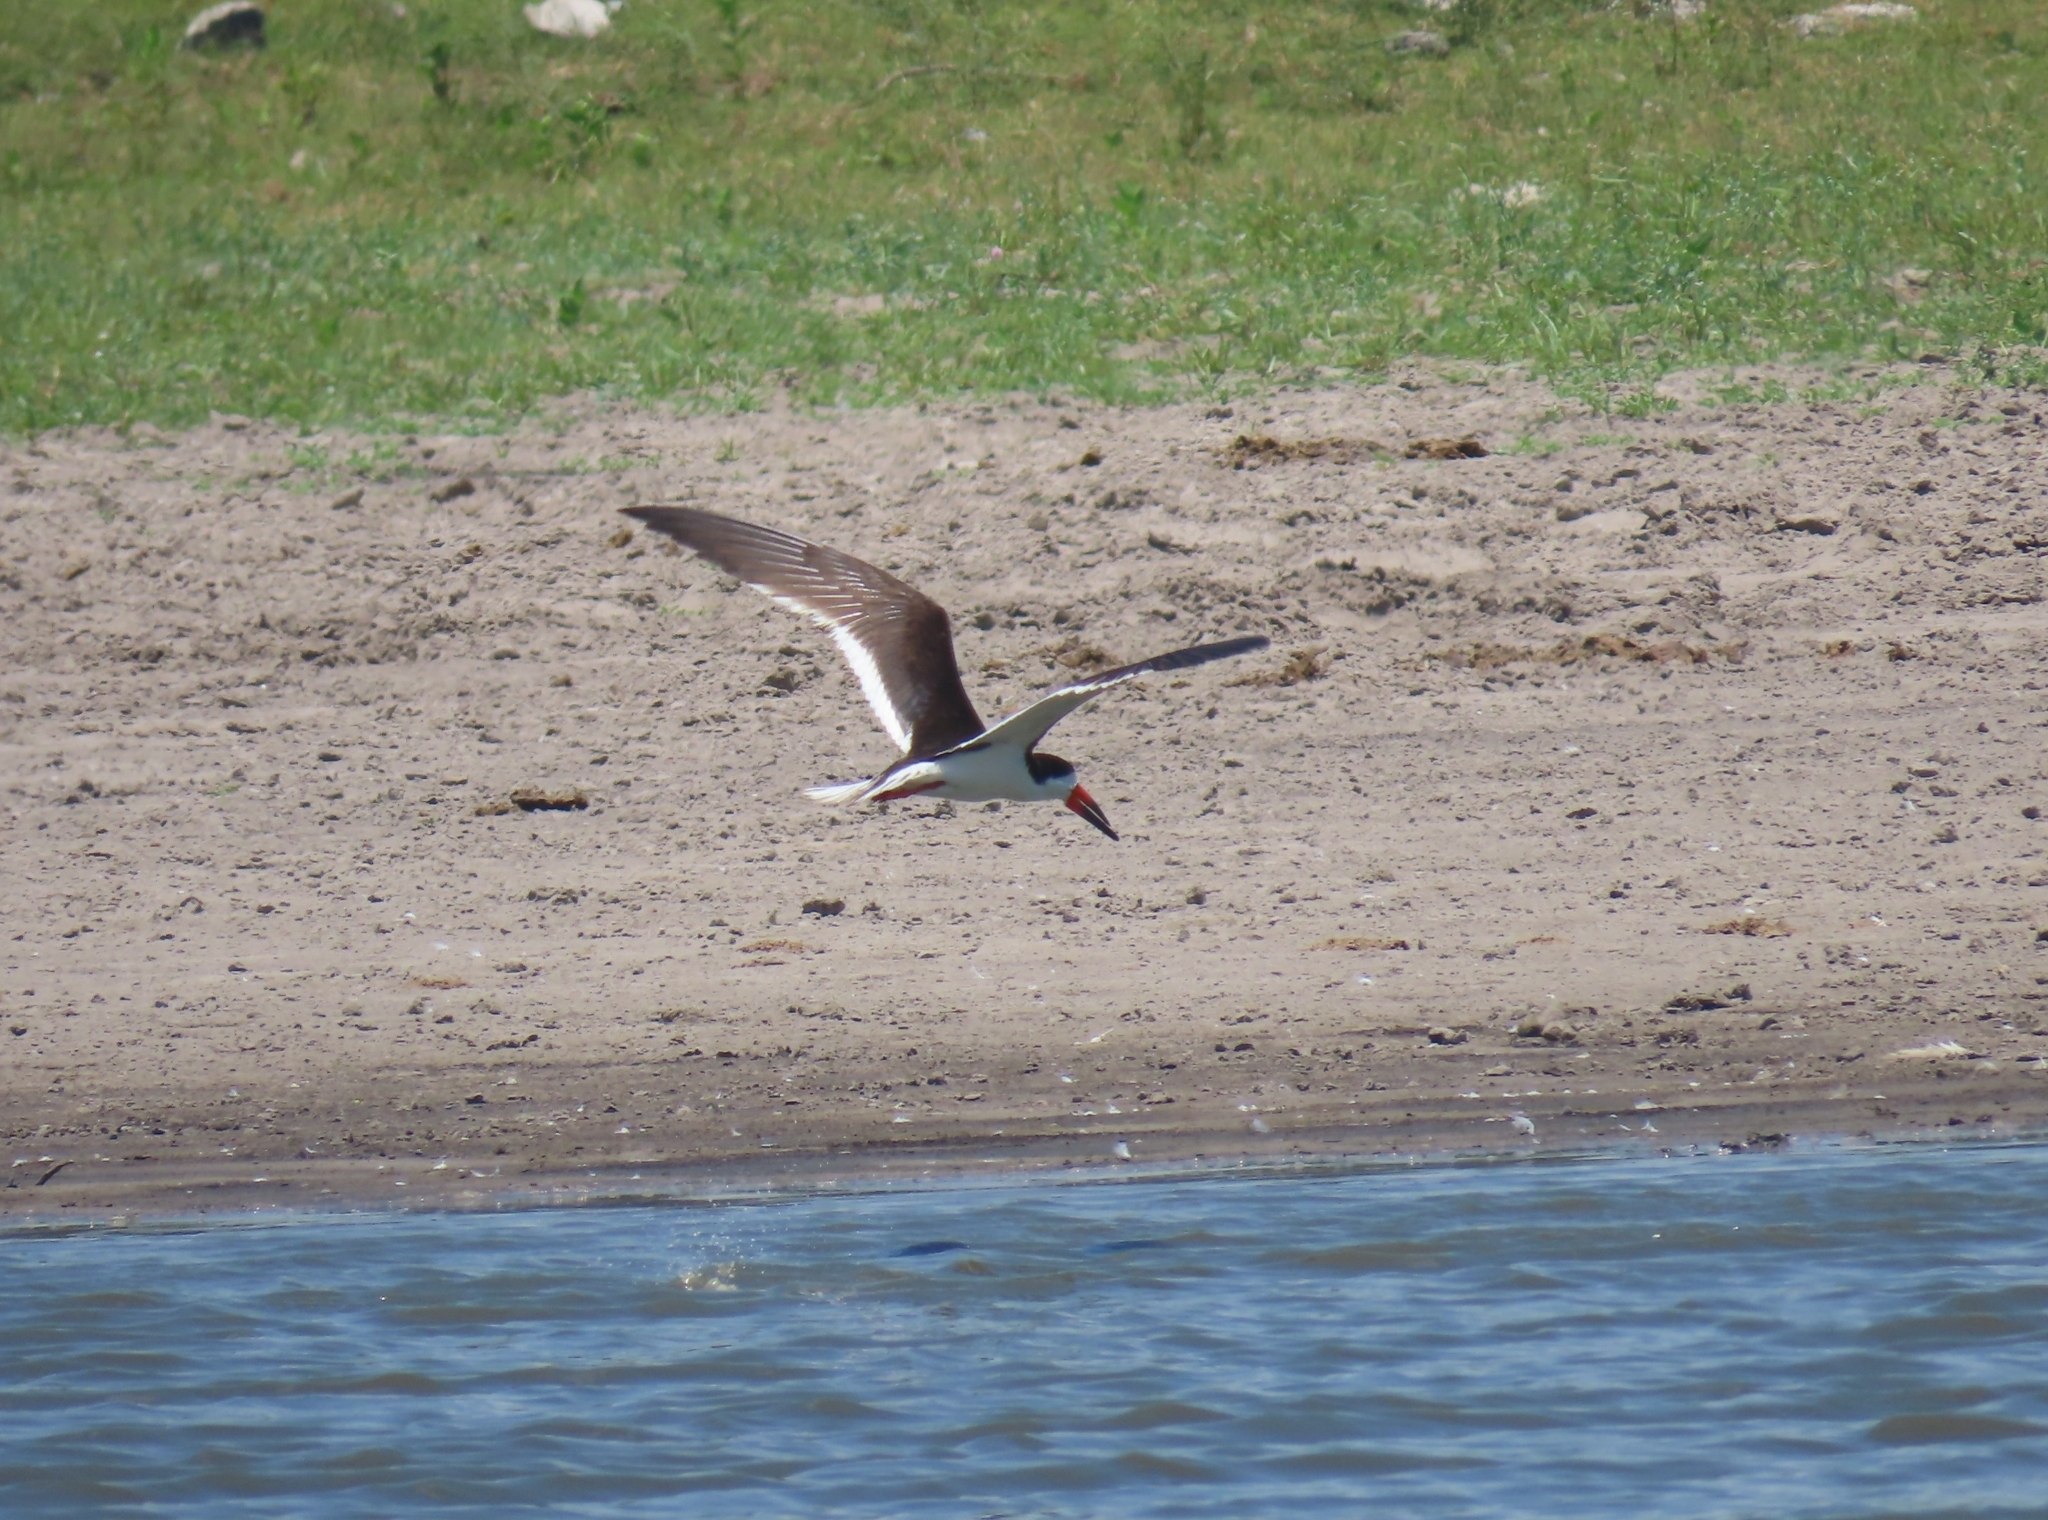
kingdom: Animalia
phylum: Chordata
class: Aves
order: Charadriiformes
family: Laridae
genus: Rynchops
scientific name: Rynchops niger
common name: Black skimmer
